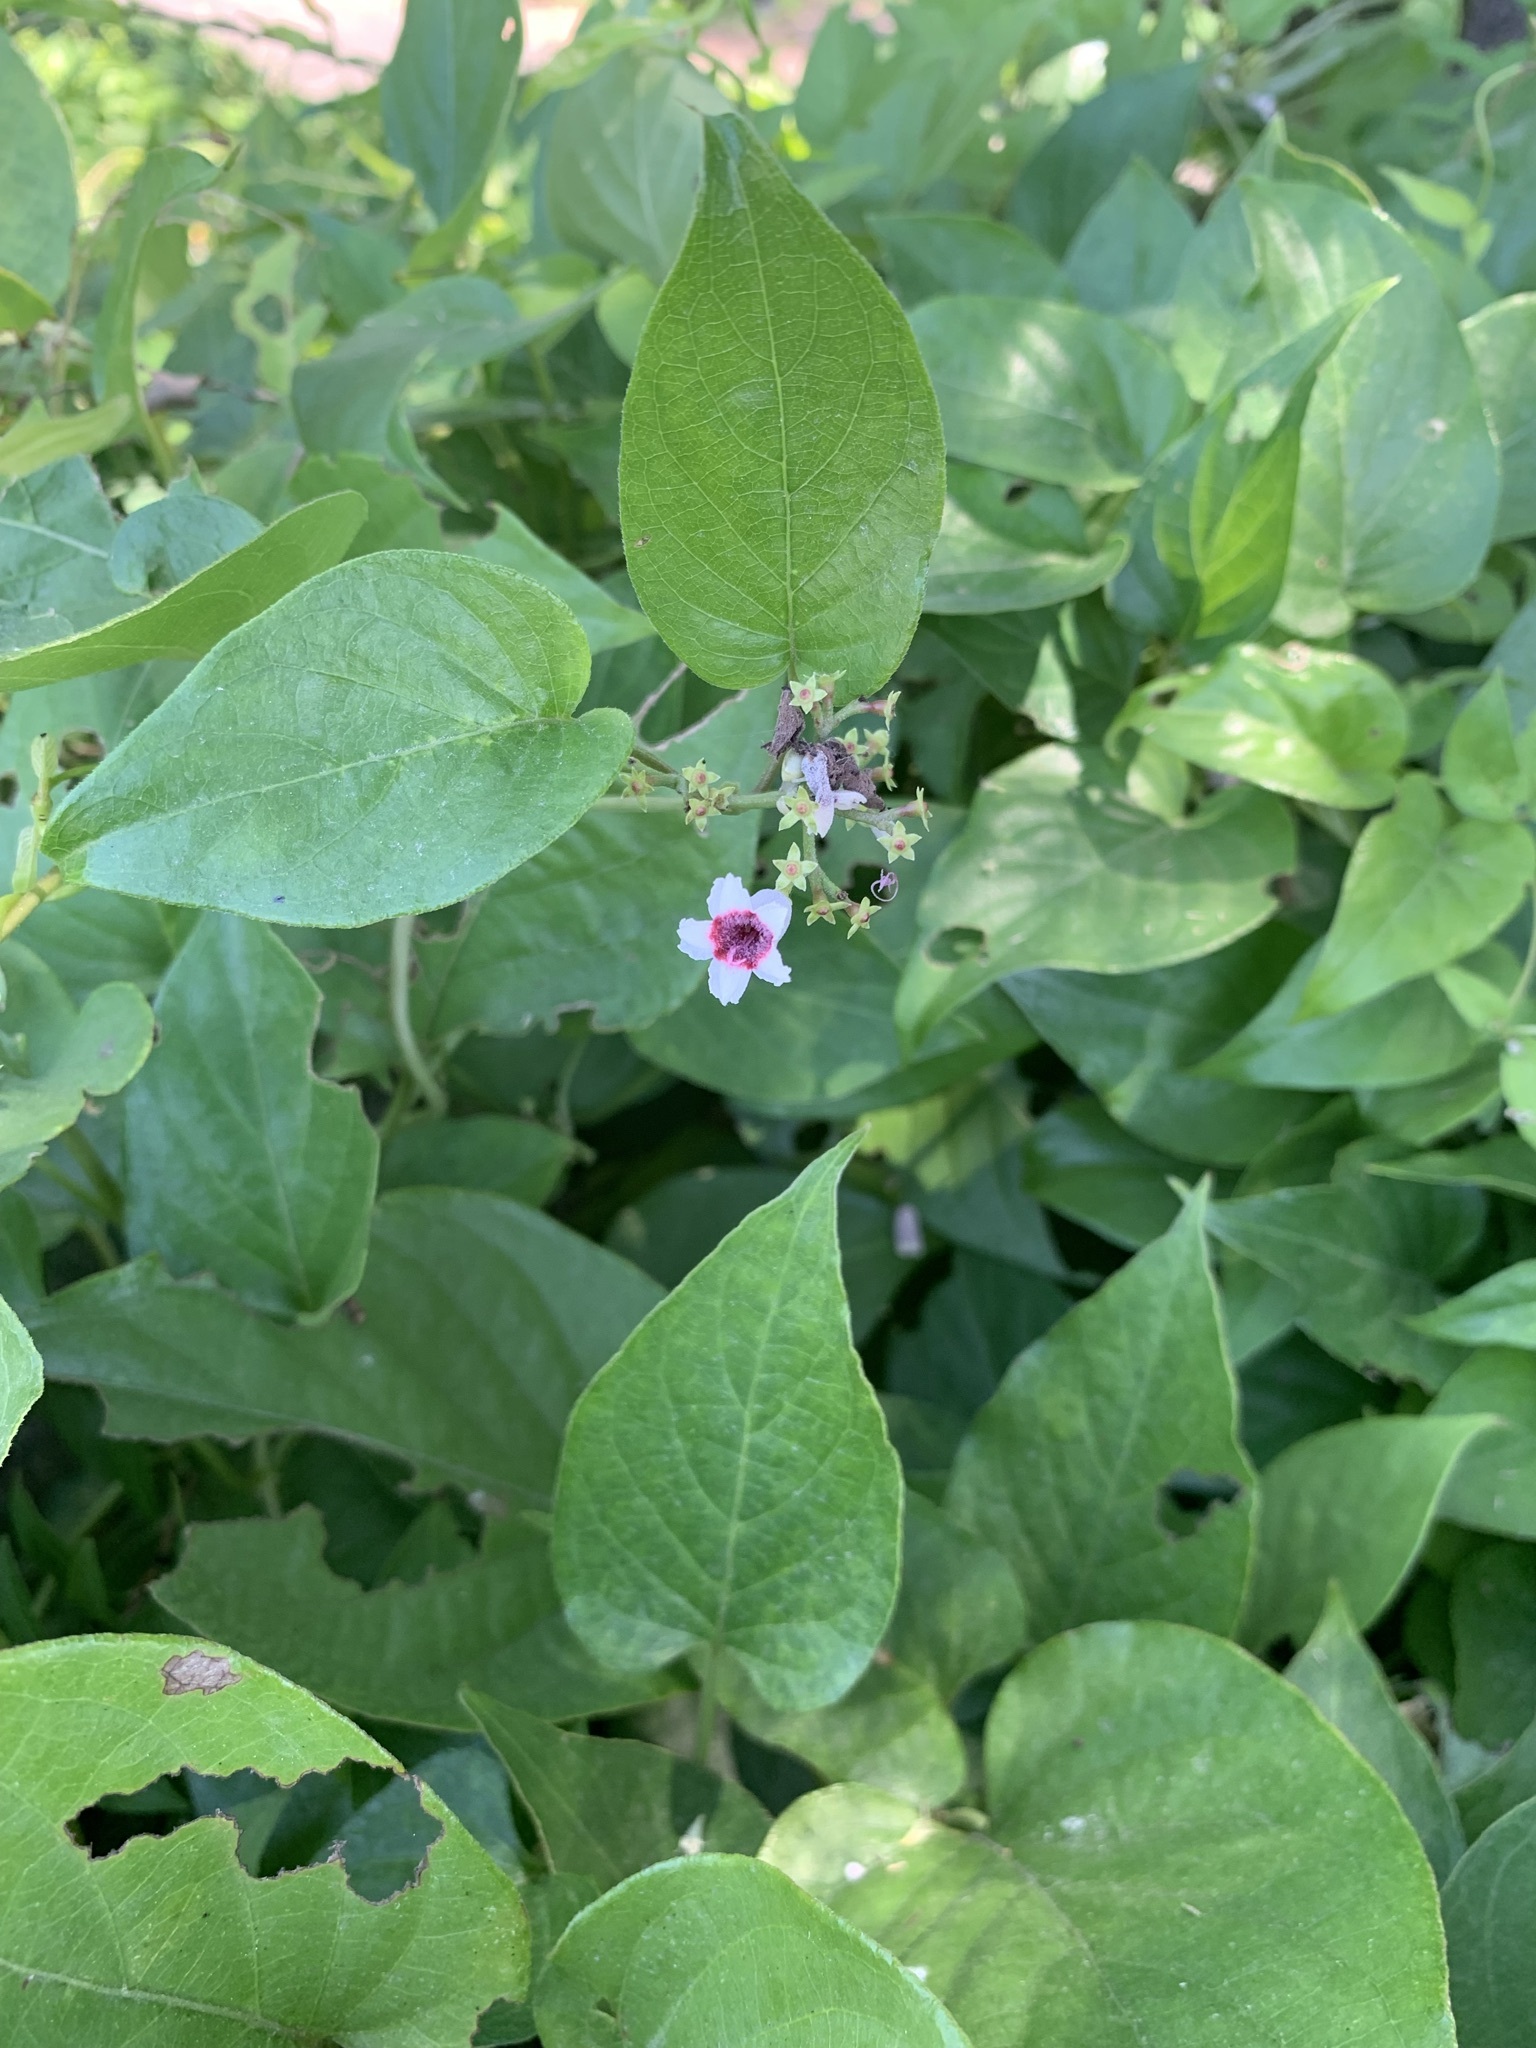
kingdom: Plantae
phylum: Tracheophyta
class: Magnoliopsida
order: Gentianales
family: Rubiaceae
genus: Paederia
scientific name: Paederia foetida
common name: Stinkvine
